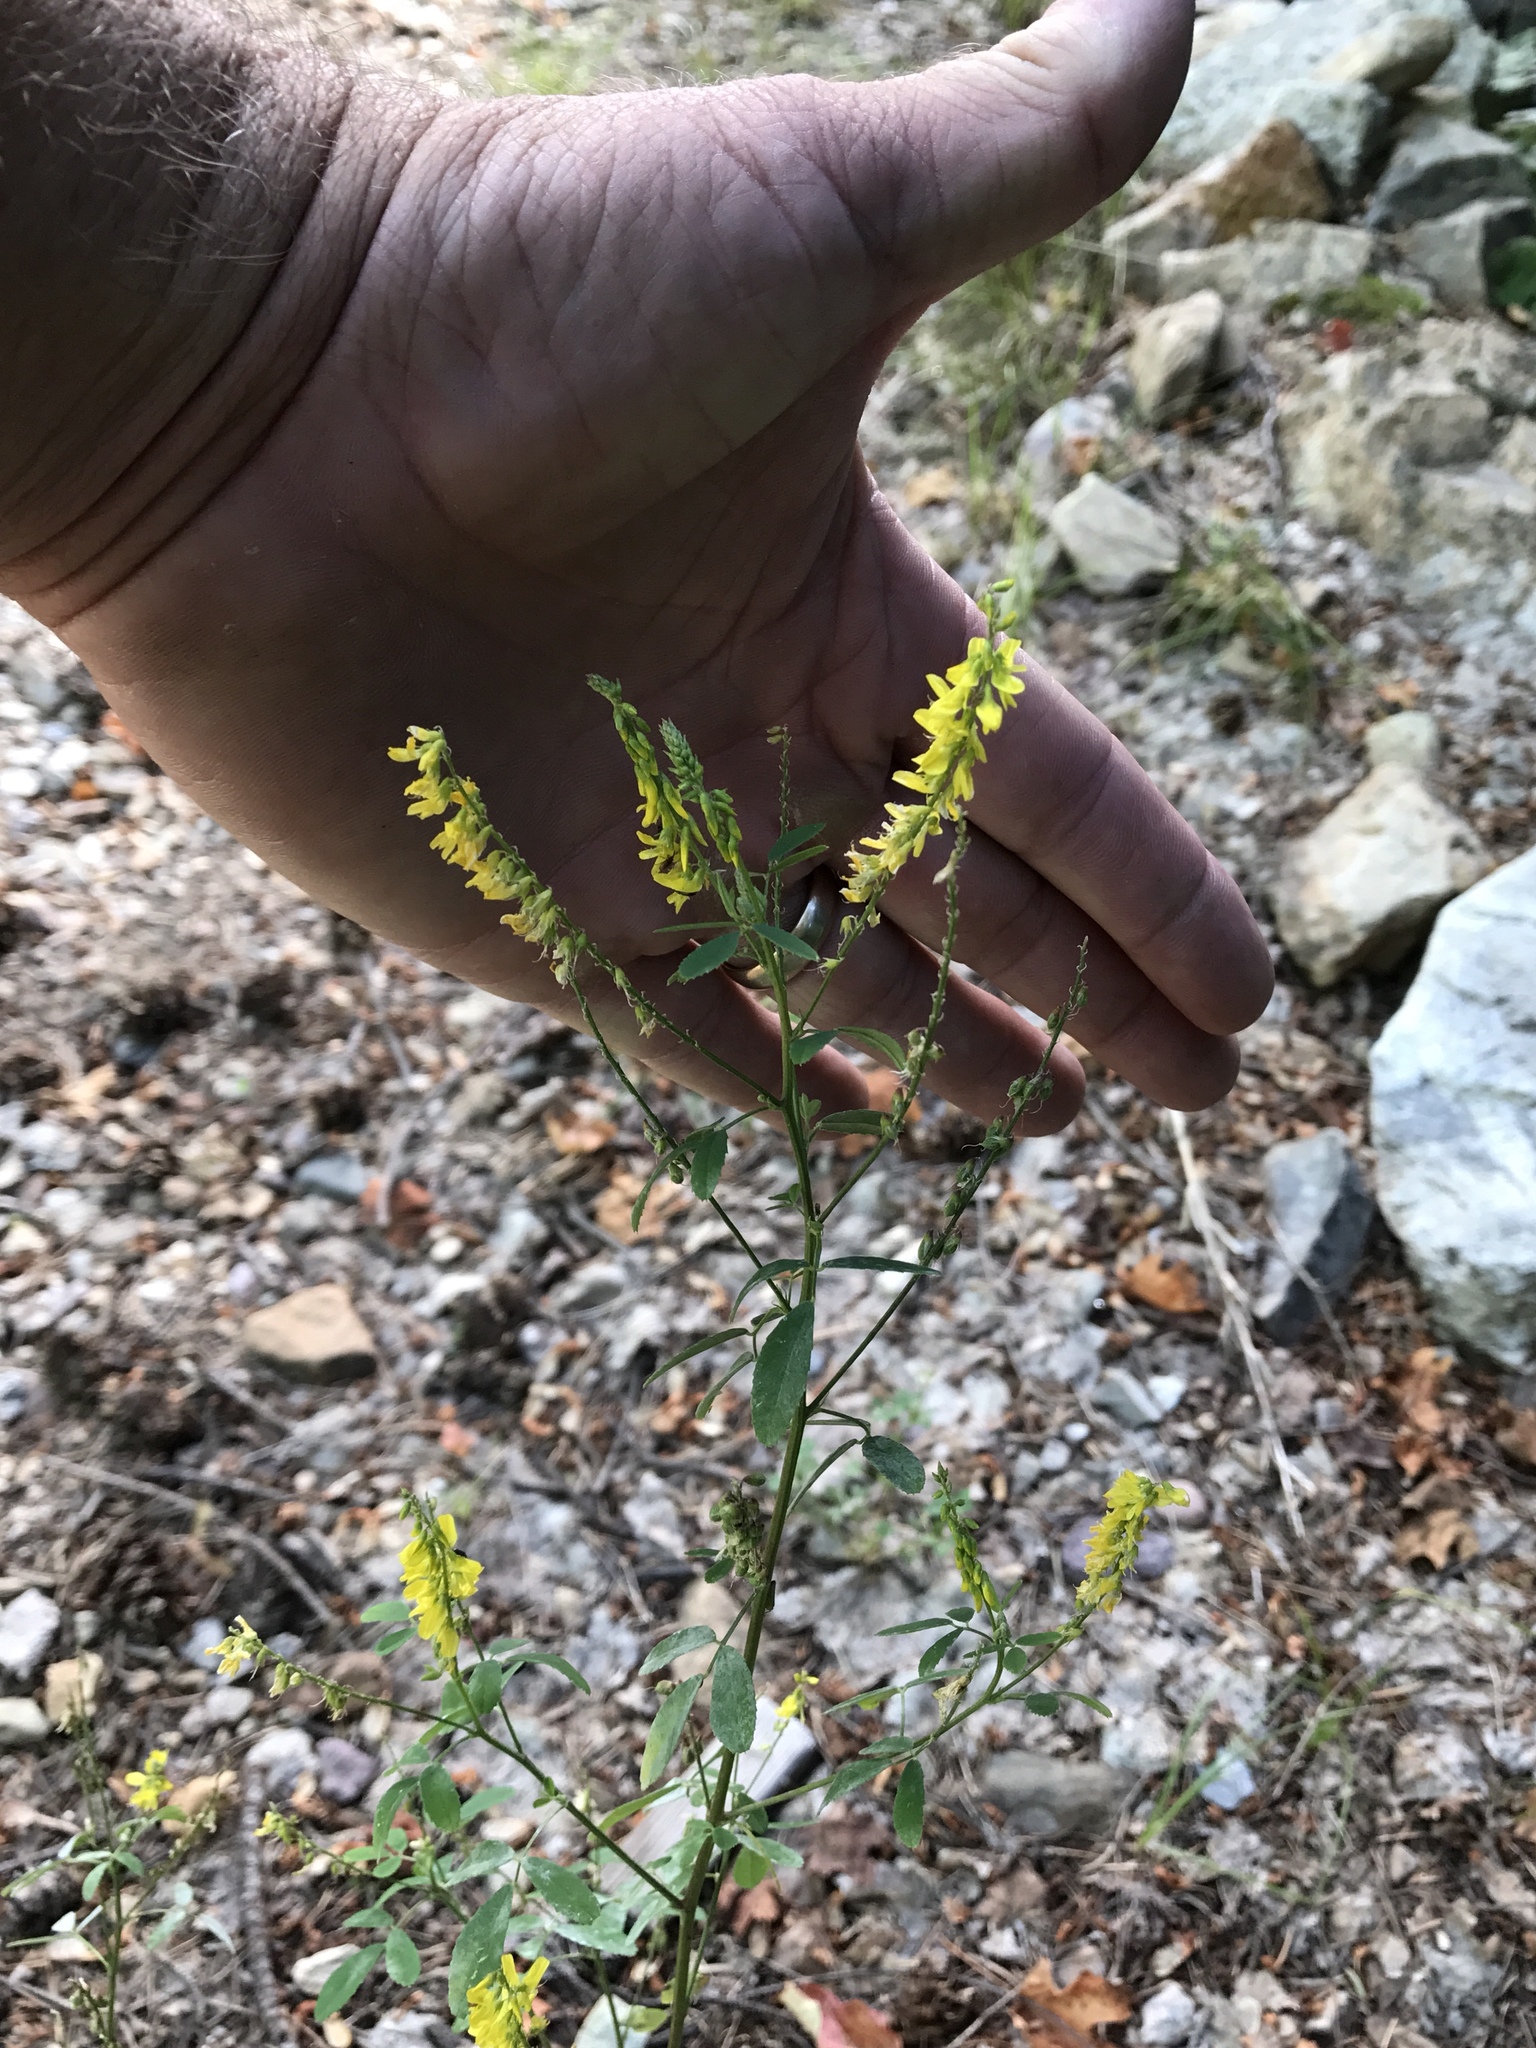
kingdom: Plantae
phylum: Tracheophyta
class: Magnoliopsida
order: Fabales
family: Fabaceae
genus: Melilotus
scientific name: Melilotus officinalis
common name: Sweetclover
